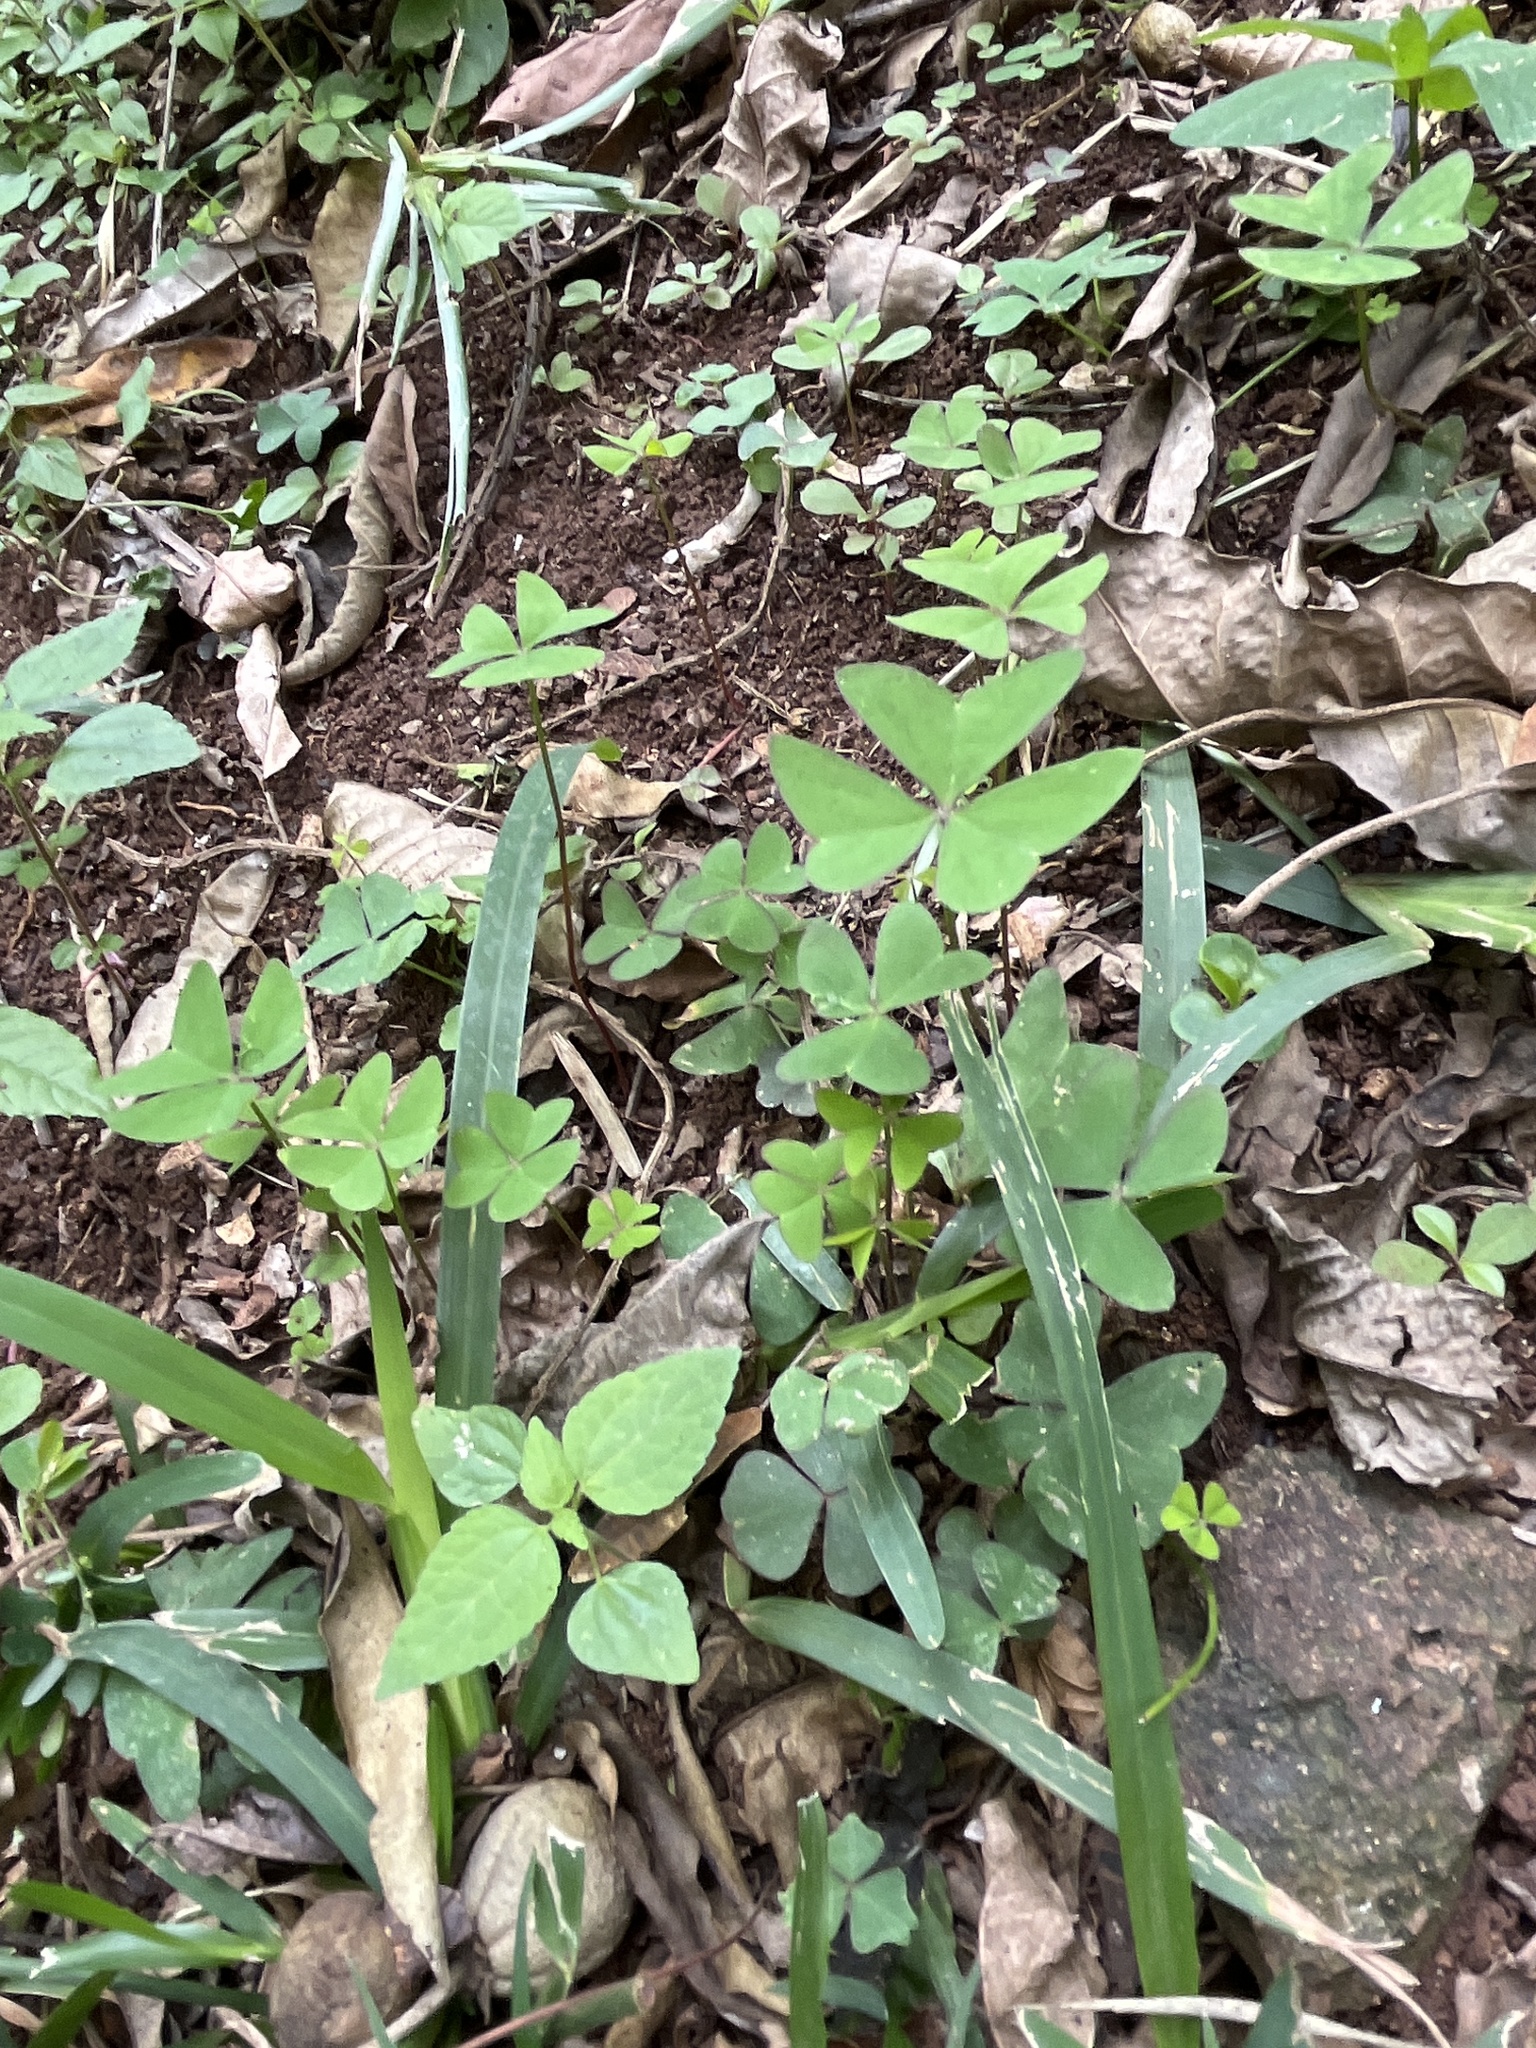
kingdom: Plantae
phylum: Tracheophyta
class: Magnoliopsida
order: Oxalidales
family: Oxalidaceae
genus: Oxalis
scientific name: Oxalis latifolia
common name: Garden pink-sorrel
